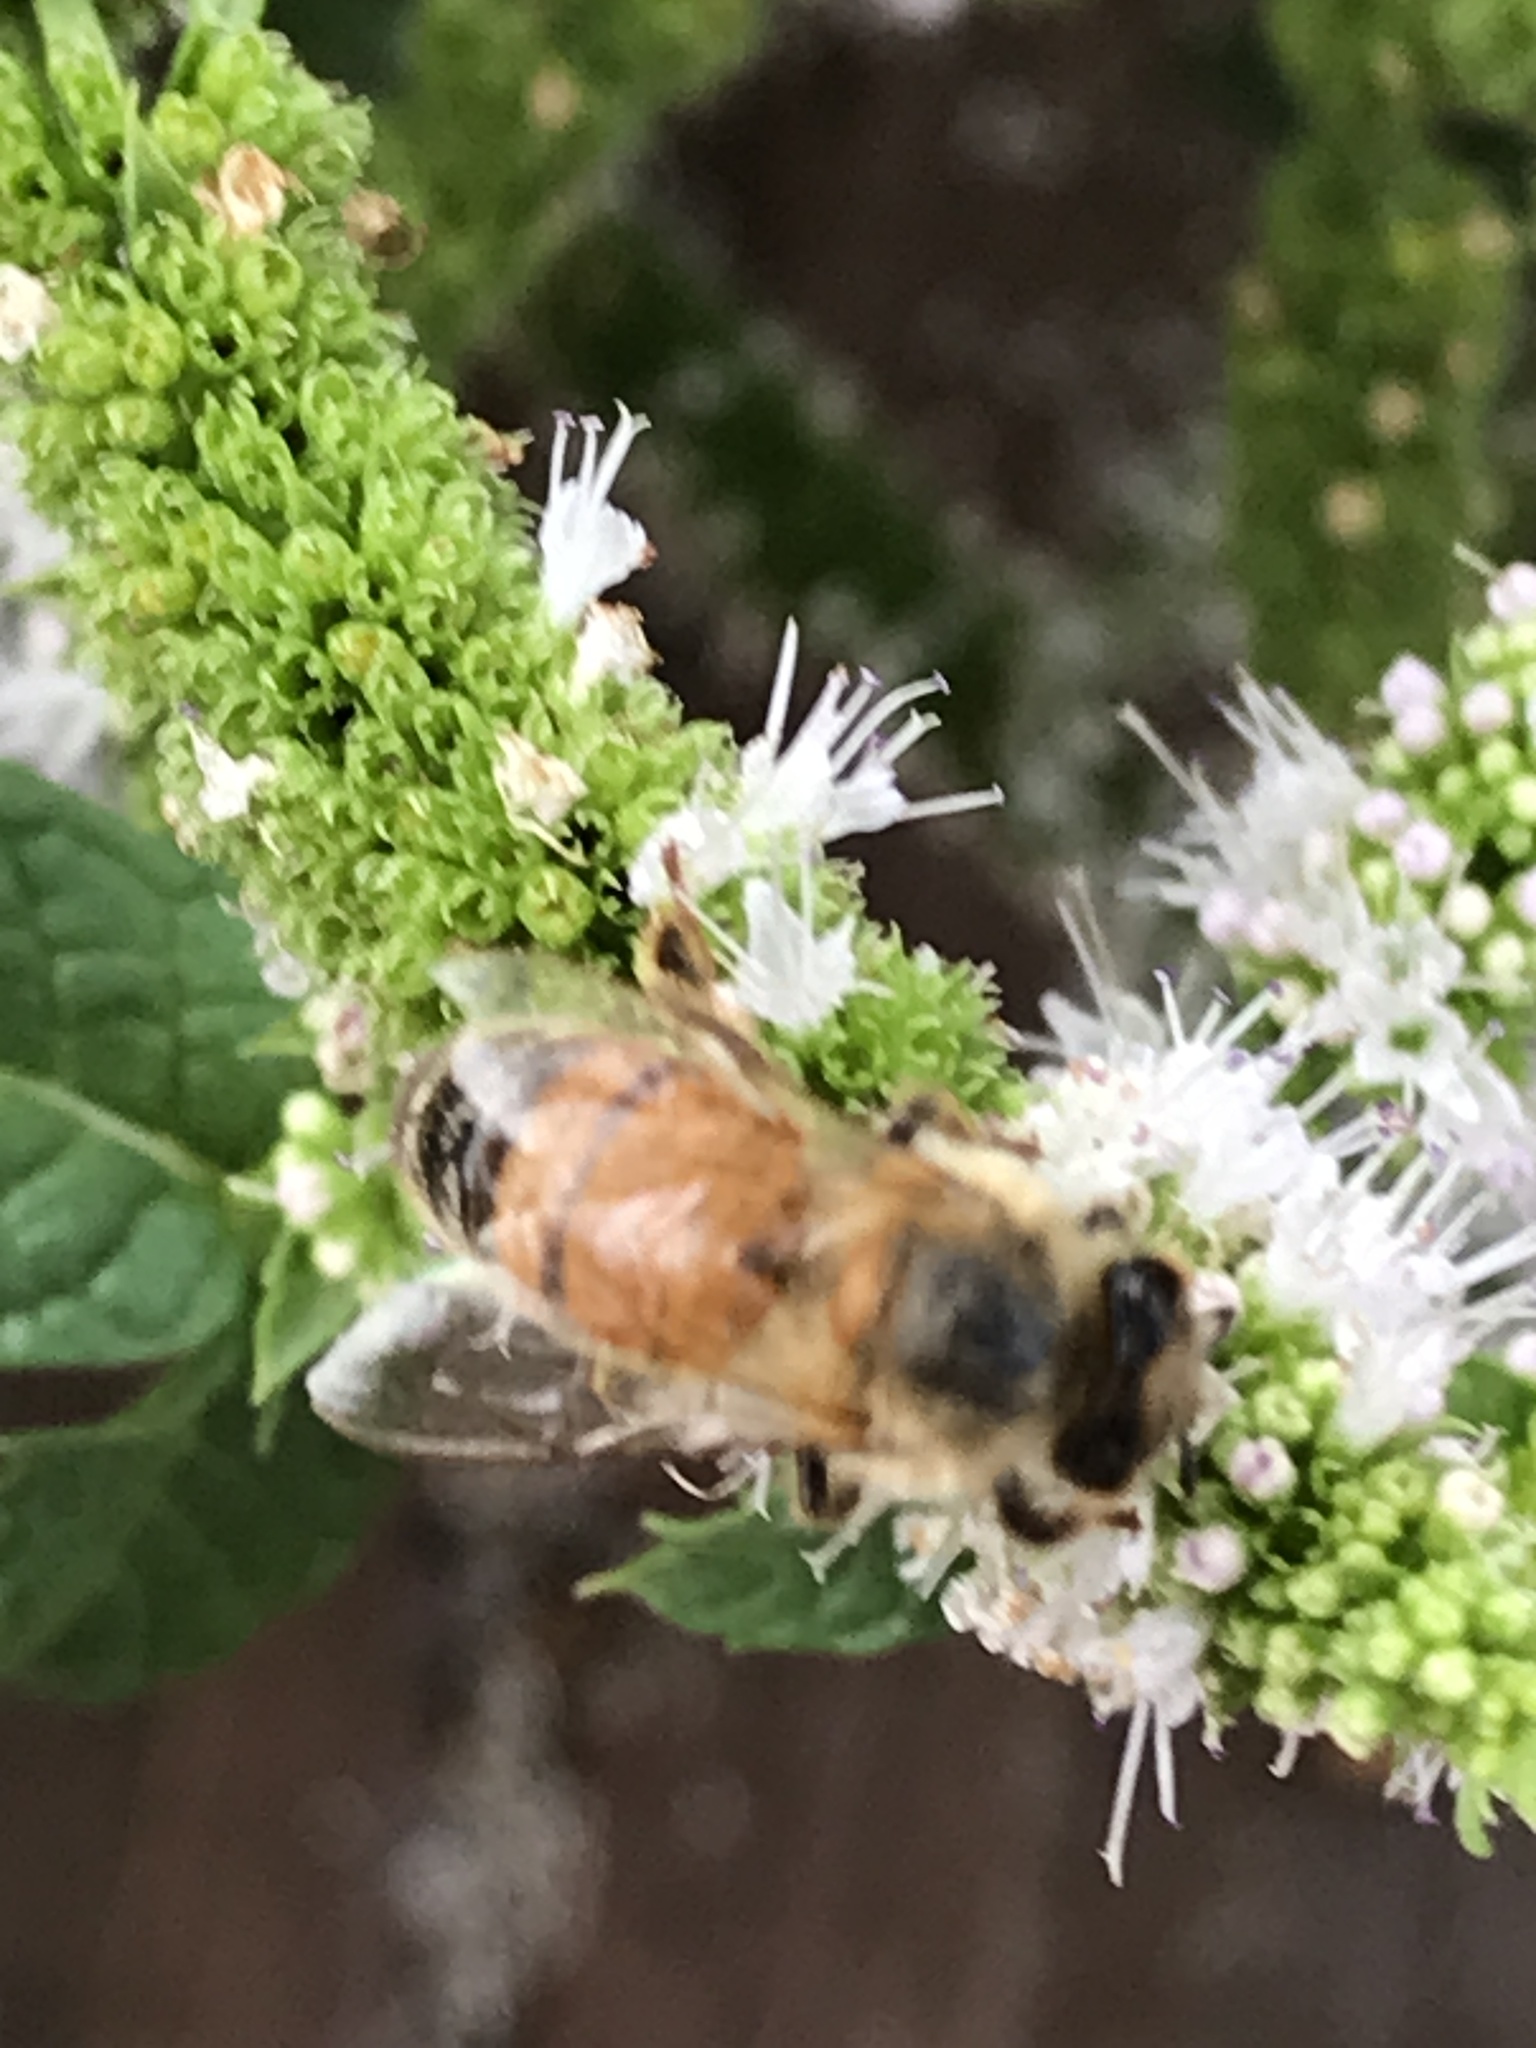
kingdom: Animalia
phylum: Arthropoda
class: Insecta
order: Hymenoptera
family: Apidae
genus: Apis
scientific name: Apis mellifera
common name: Honey bee
